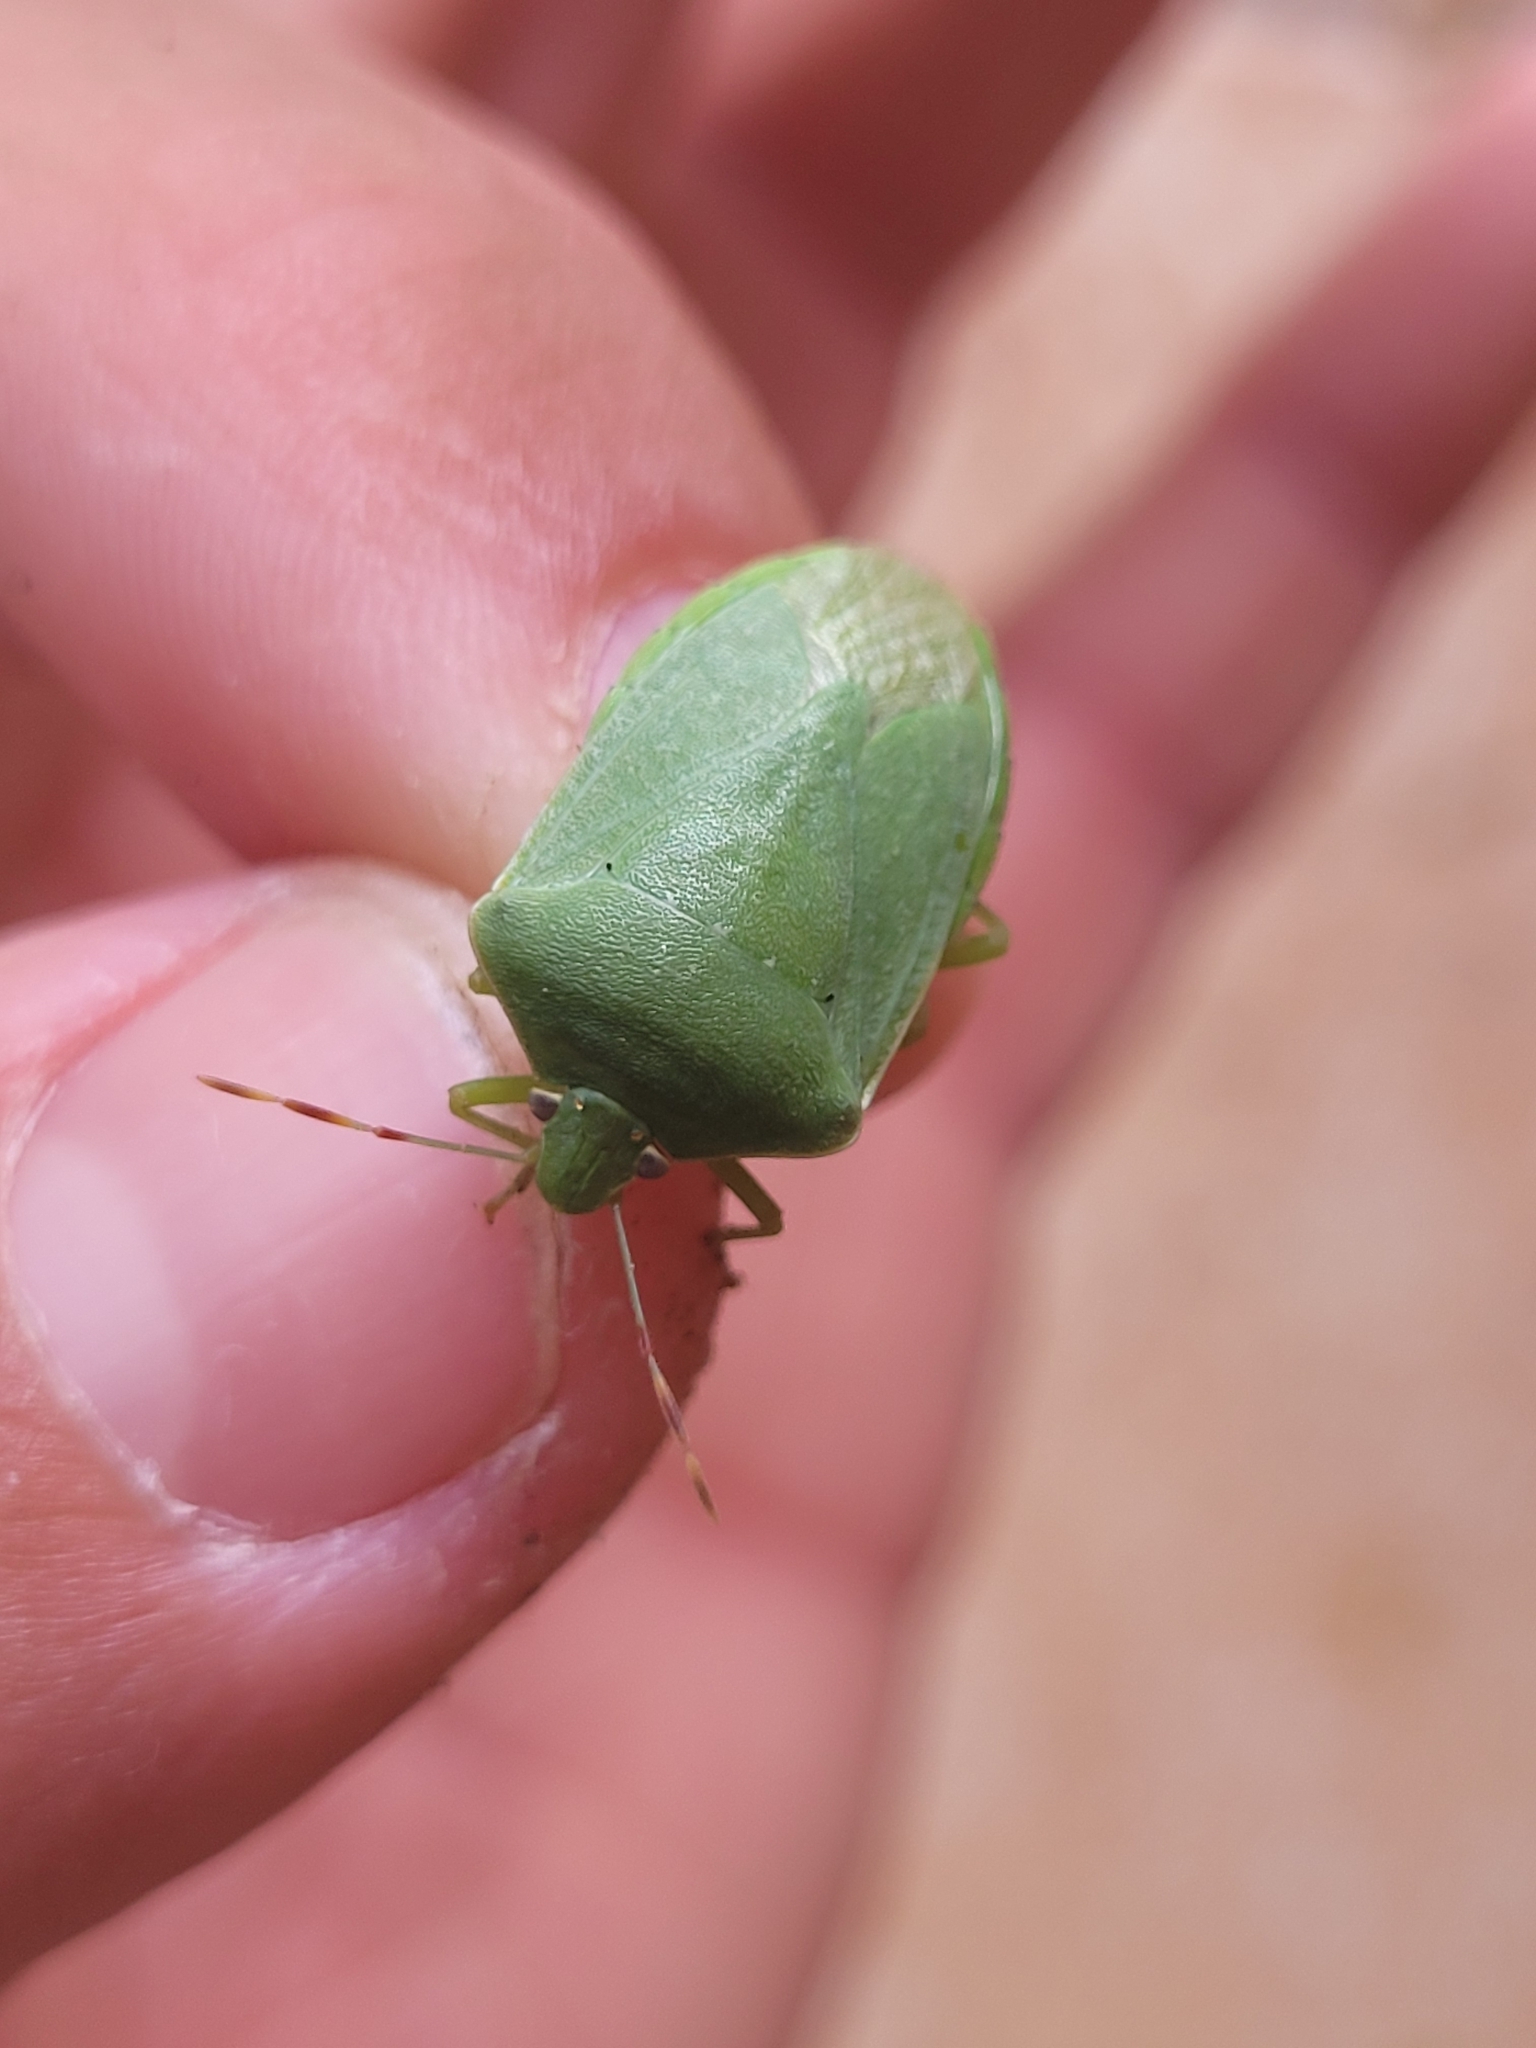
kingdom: Animalia
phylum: Arthropoda
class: Insecta
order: Hemiptera
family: Pentatomidae
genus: Nezara
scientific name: Nezara viridula
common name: Southern green stink bug
